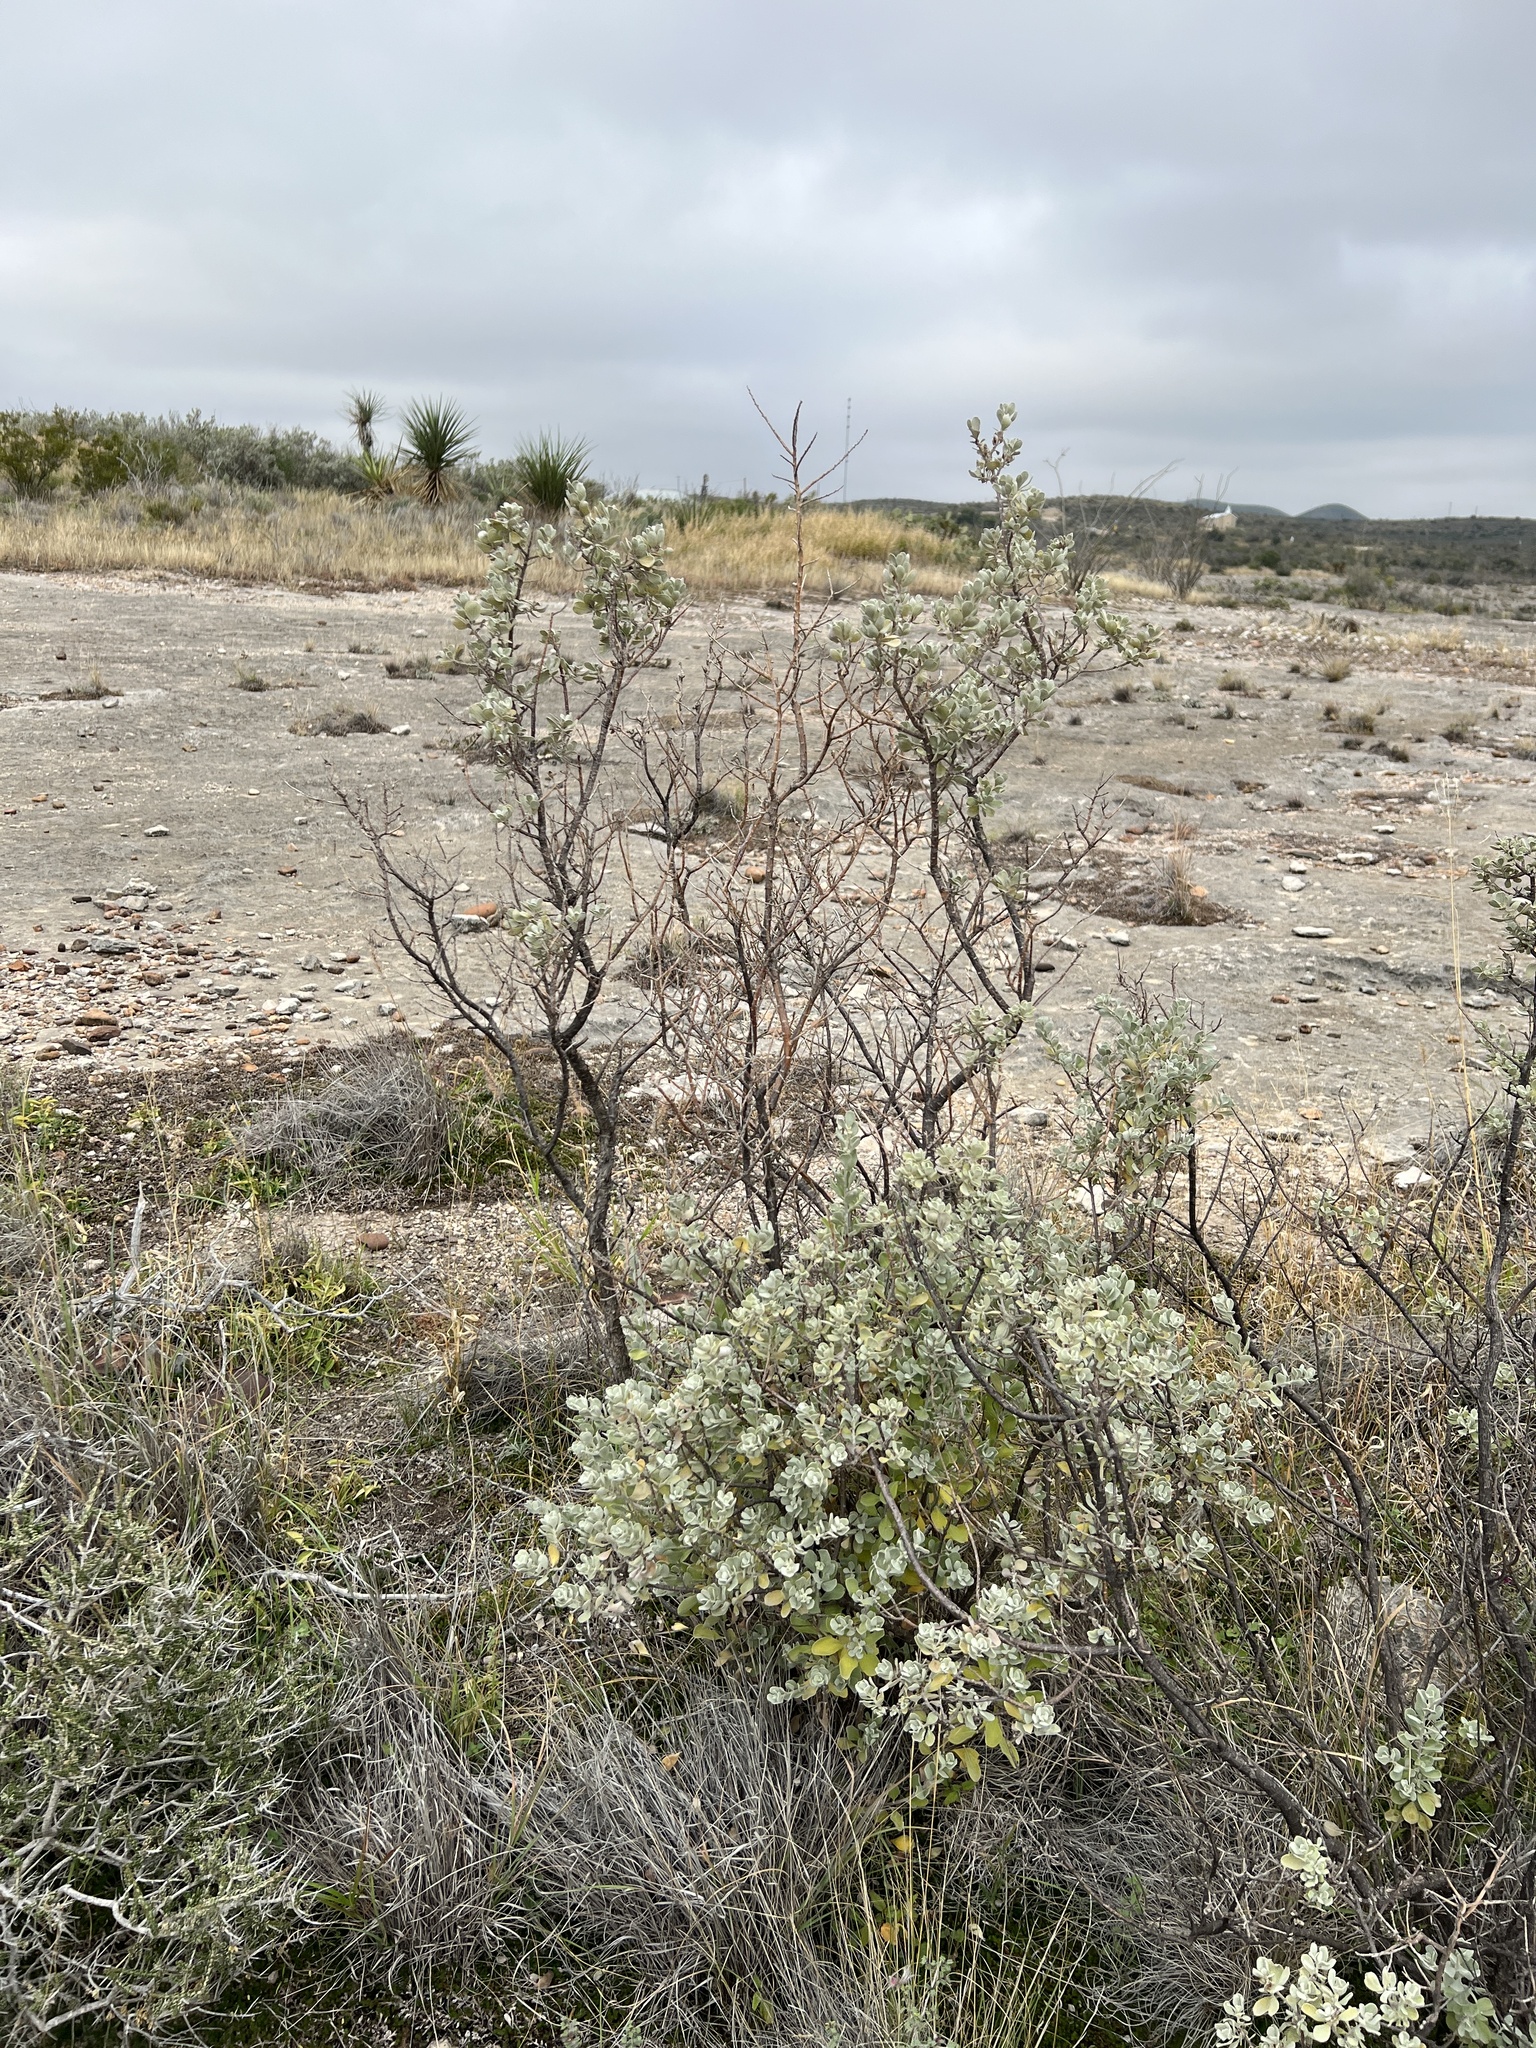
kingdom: Plantae
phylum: Tracheophyta
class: Magnoliopsida
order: Lamiales
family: Scrophulariaceae
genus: Leucophyllum
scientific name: Leucophyllum frutescens
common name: Texas silverleaf
